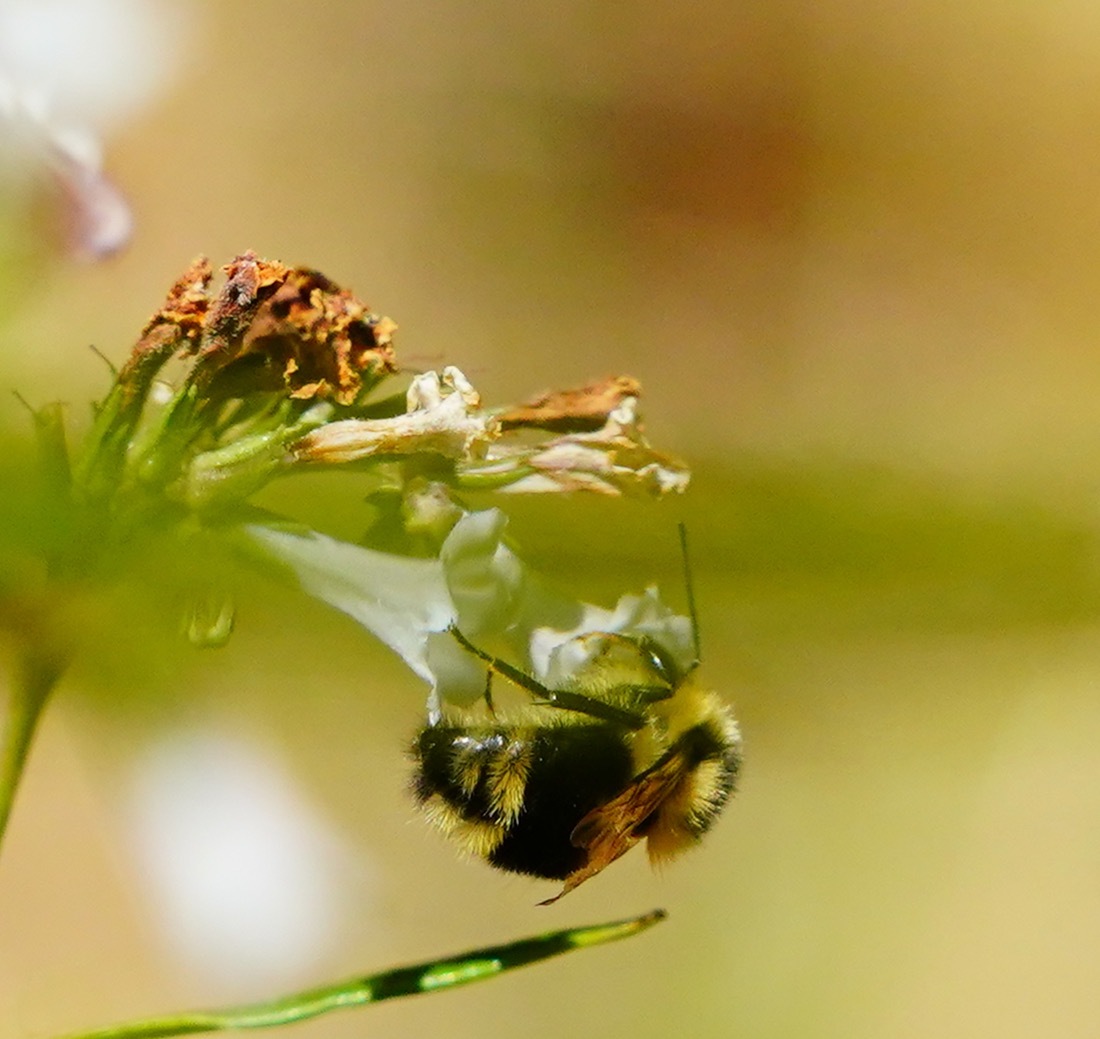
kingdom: Animalia
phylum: Arthropoda
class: Insecta
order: Hymenoptera
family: Apidae
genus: Bombus
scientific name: Bombus melanopygus
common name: Black tail bumble bee
